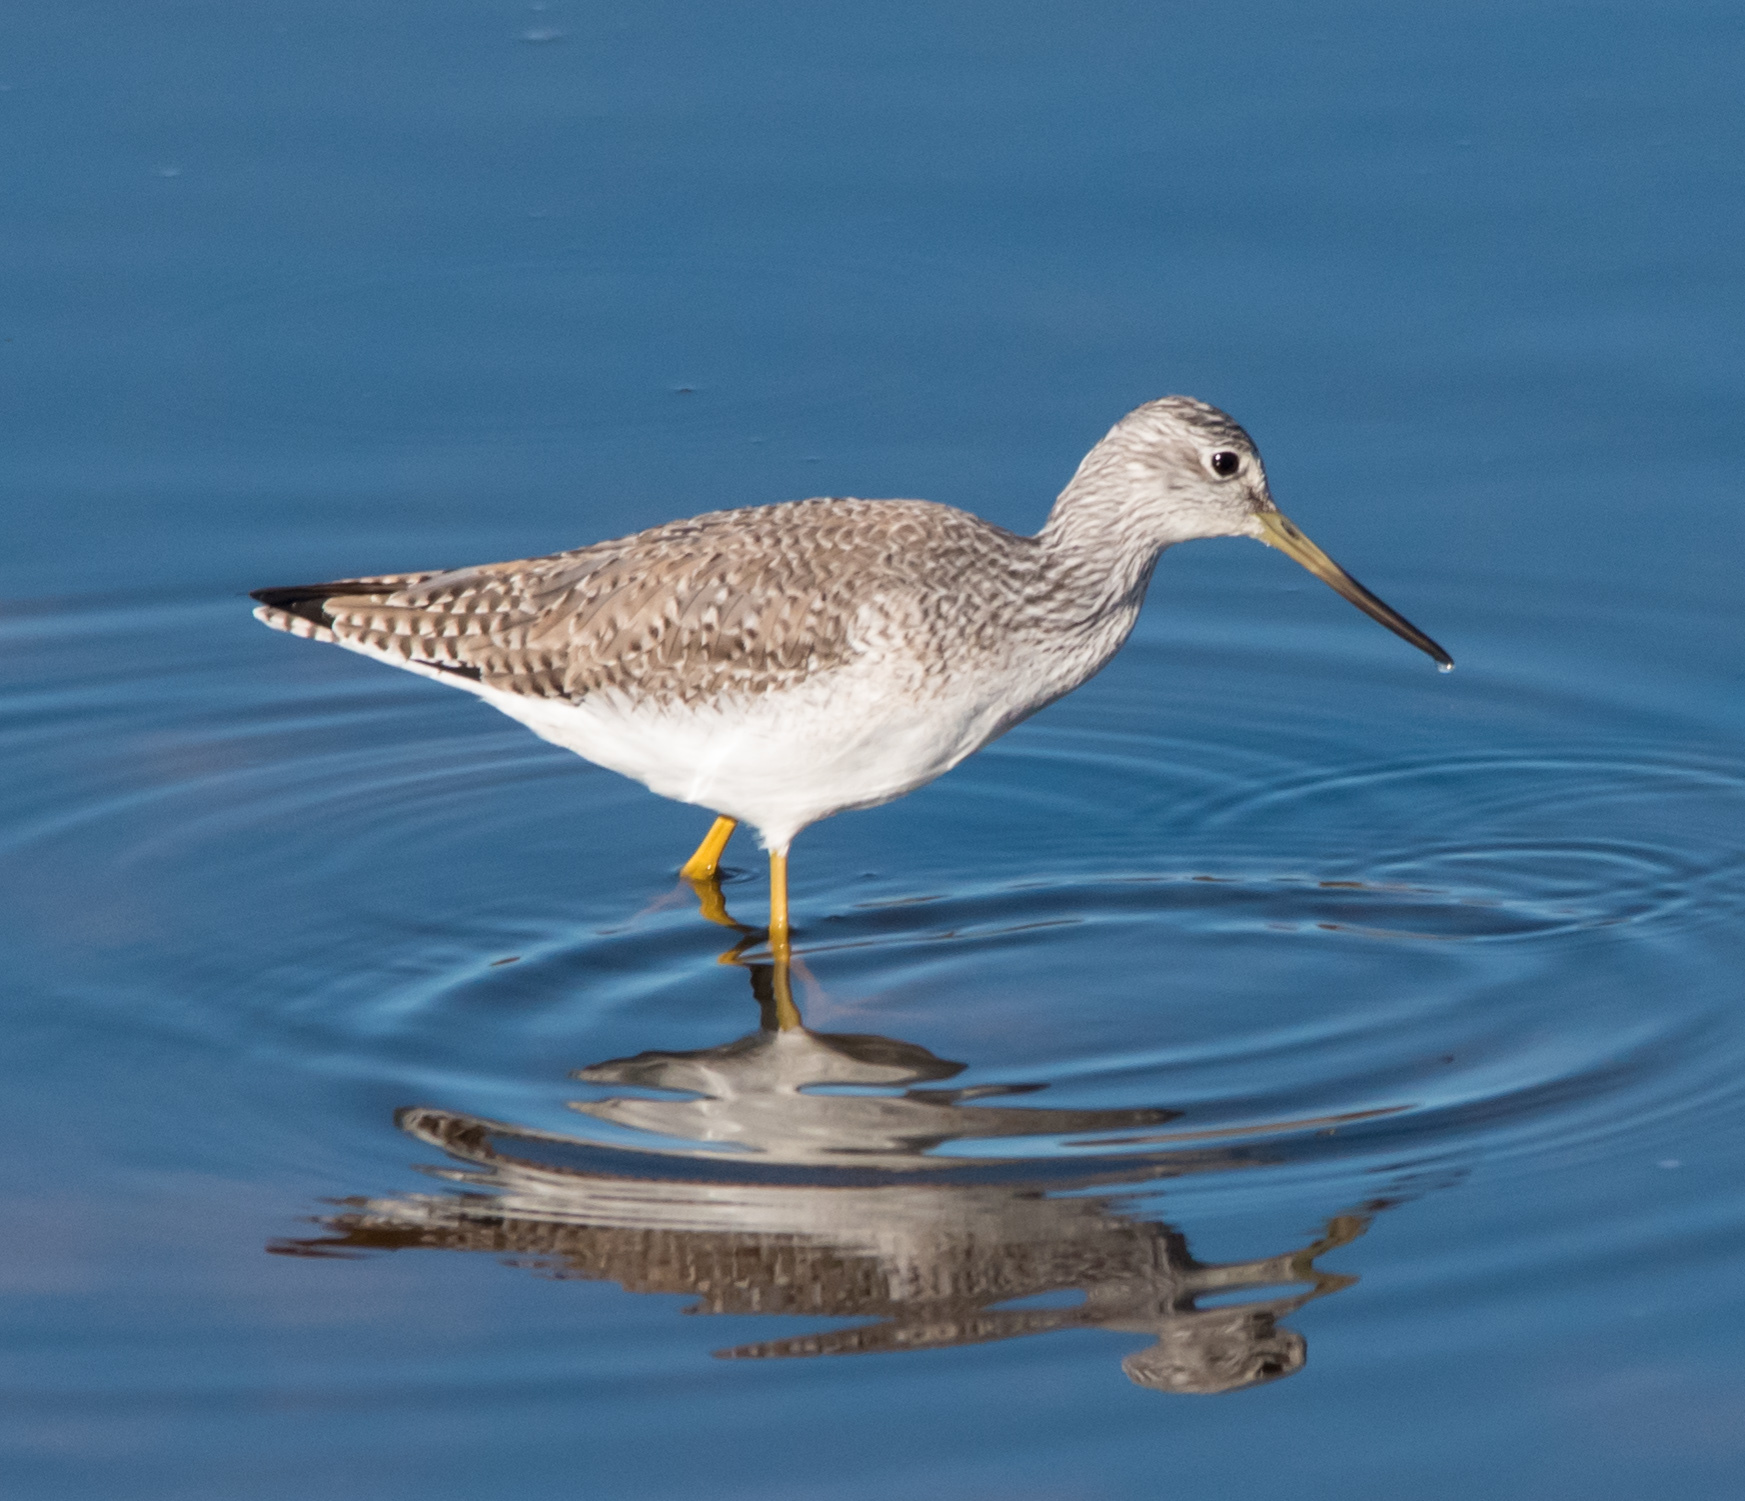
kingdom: Animalia
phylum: Chordata
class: Aves
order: Charadriiformes
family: Scolopacidae
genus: Tringa
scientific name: Tringa melanoleuca
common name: Greater yellowlegs
